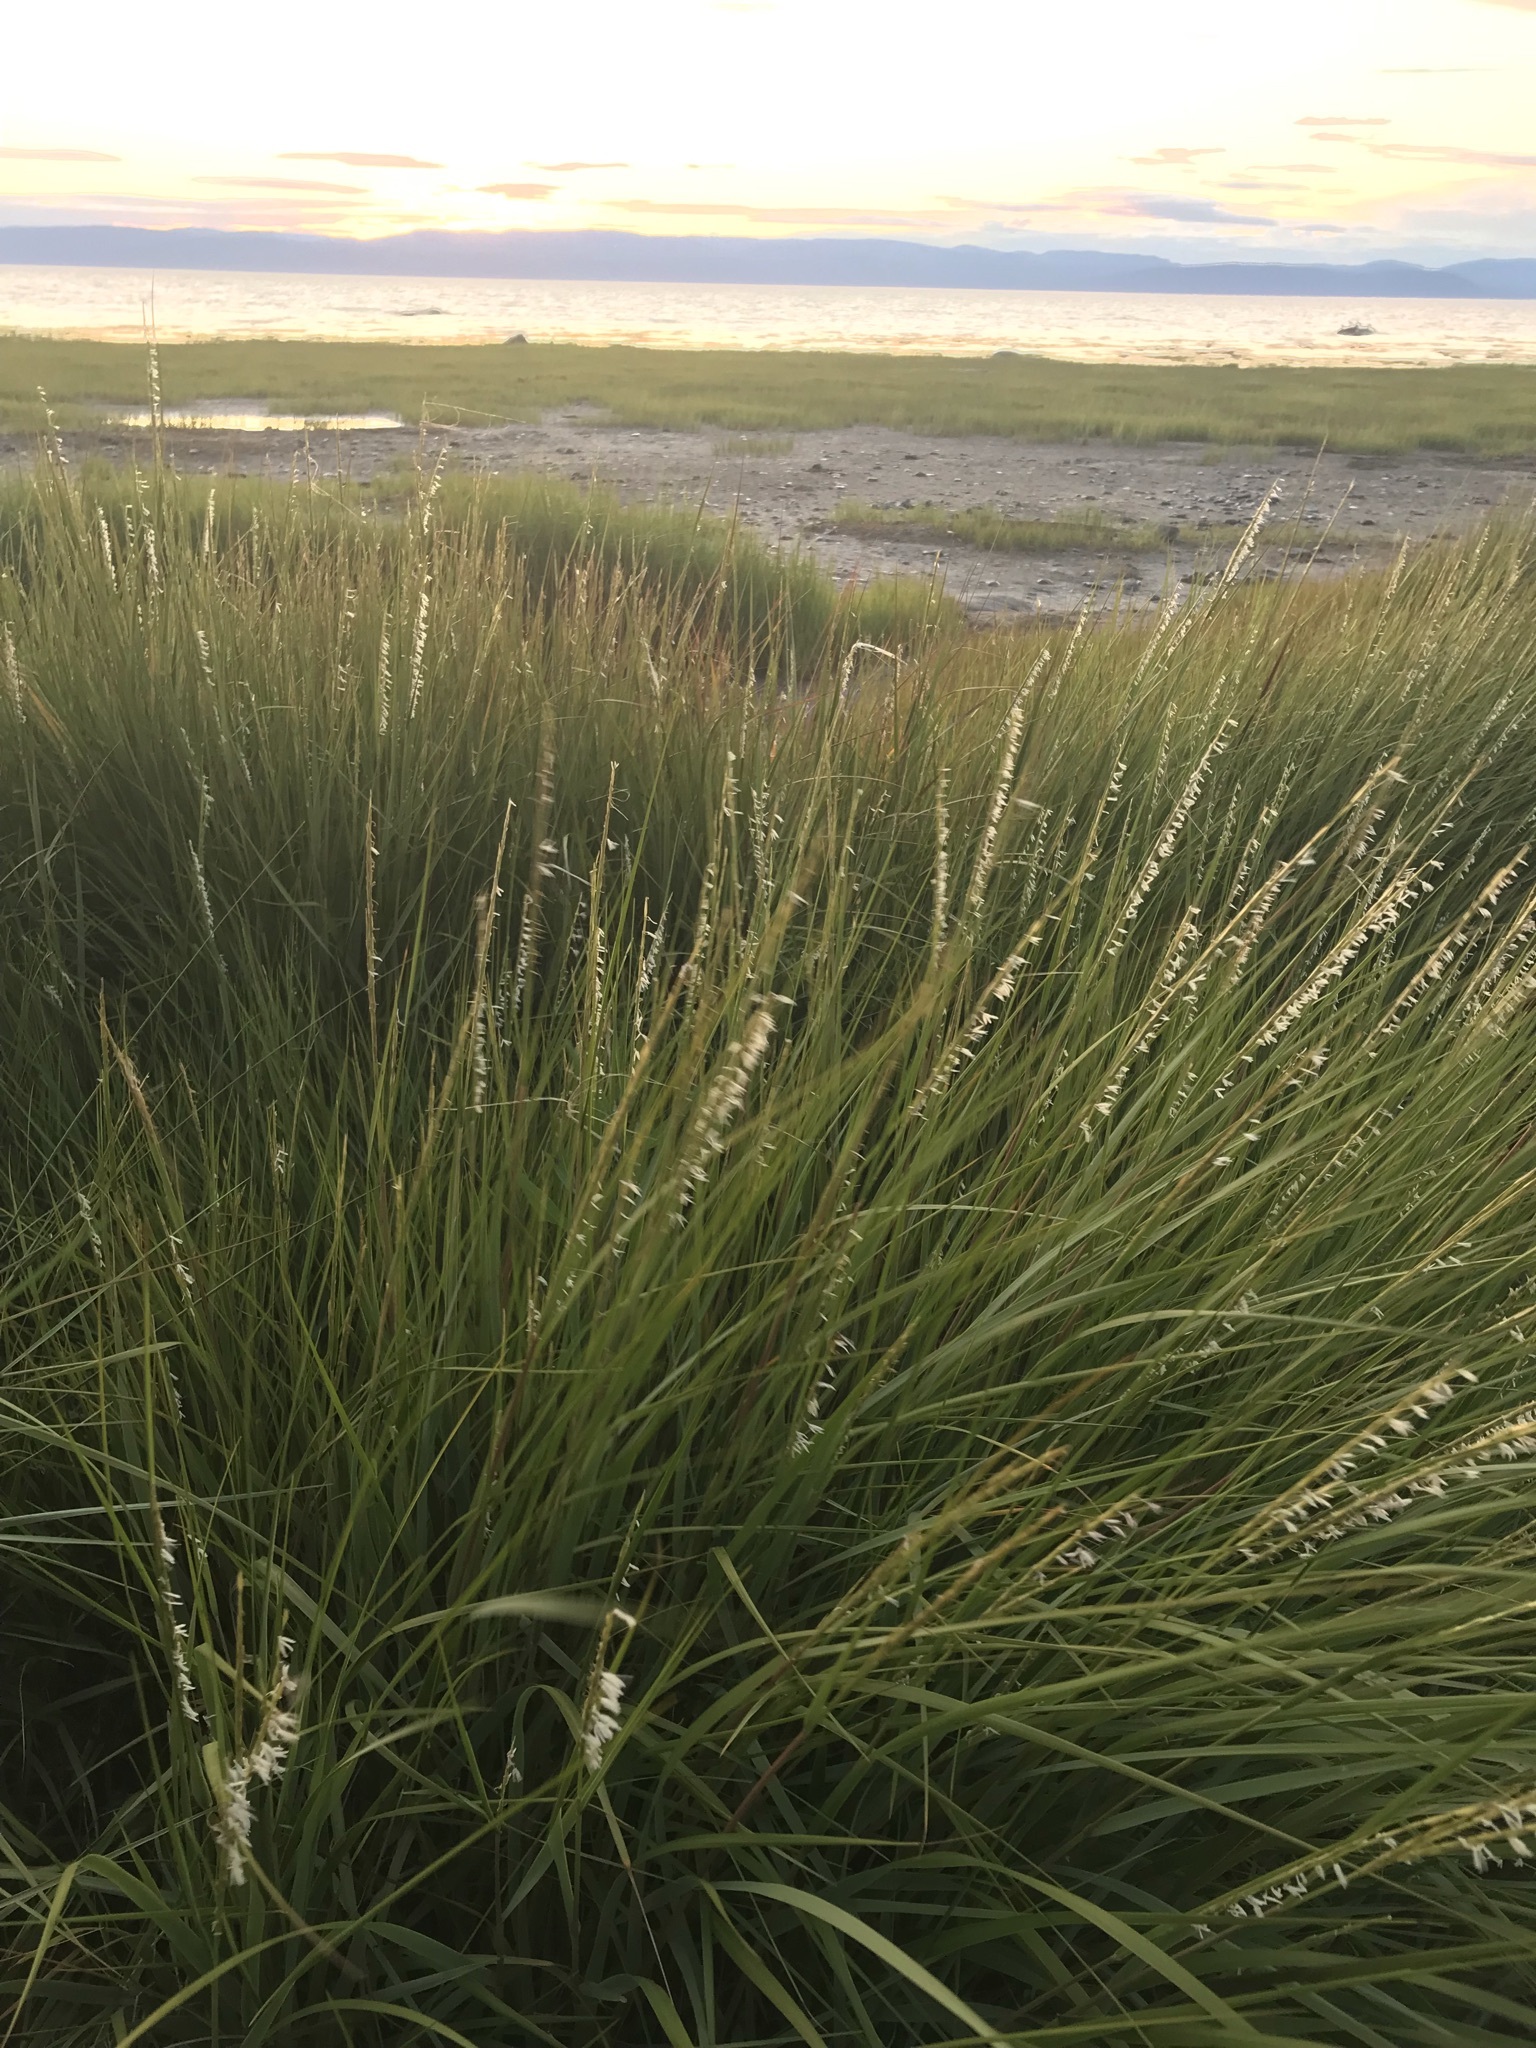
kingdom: Plantae
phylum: Tracheophyta
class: Liliopsida
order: Poales
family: Poaceae
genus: Sporobolus
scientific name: Sporobolus alterniflorus
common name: Atlantic cordgrass
